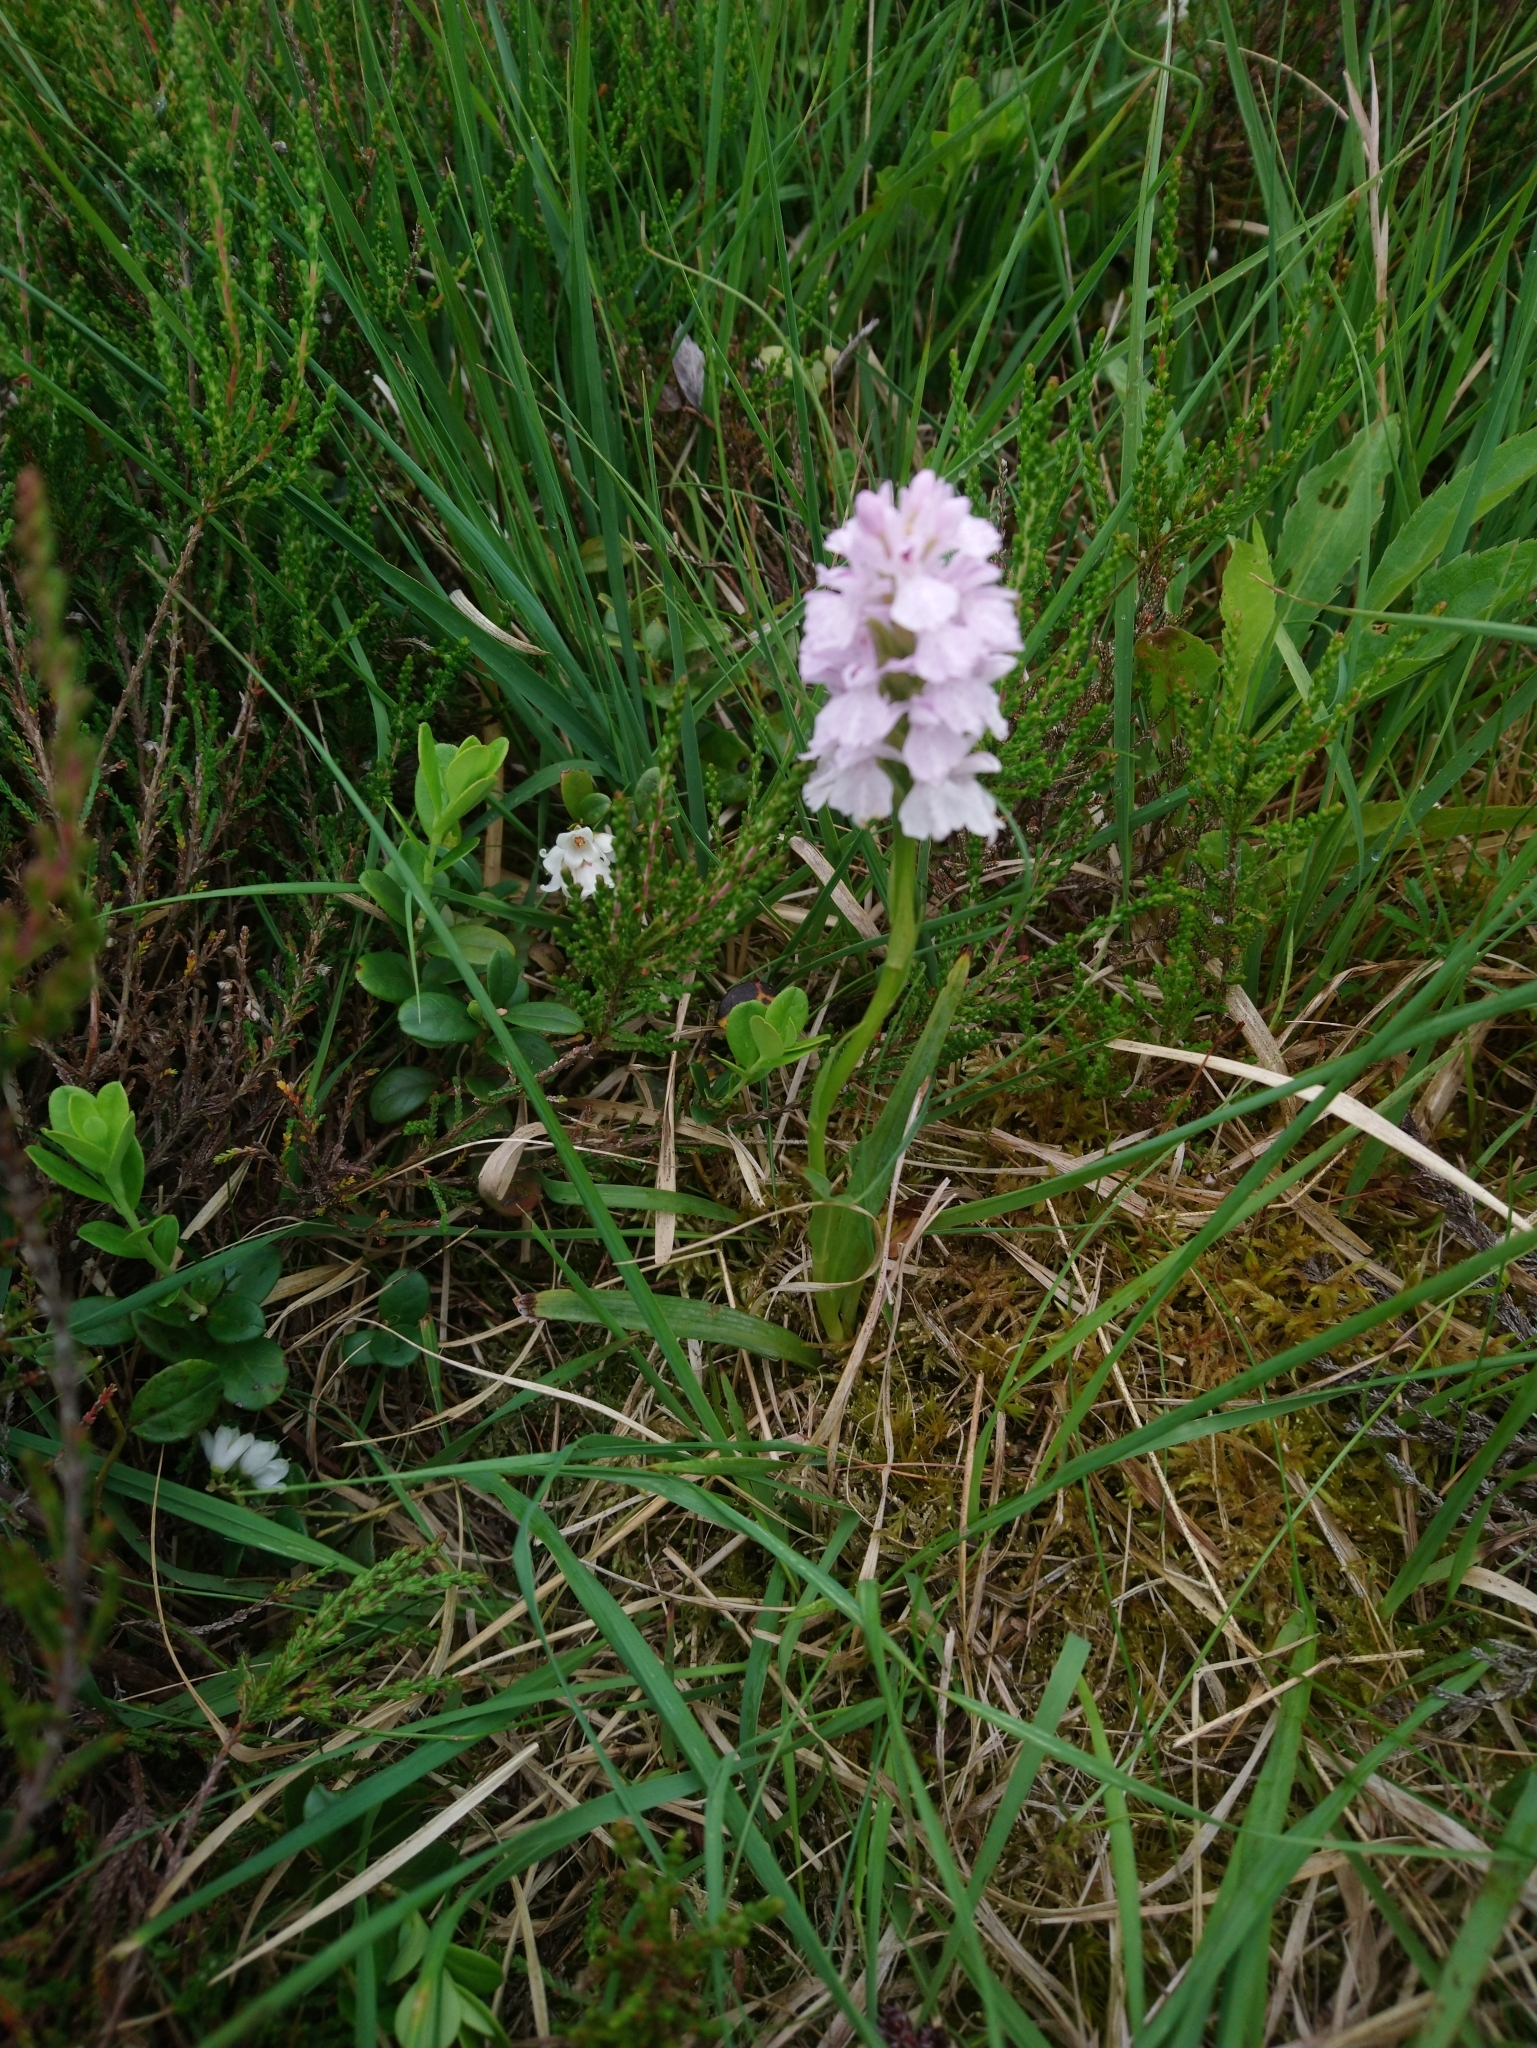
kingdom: Plantae
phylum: Tracheophyta
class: Liliopsida
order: Asparagales
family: Orchidaceae
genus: Dactylorhiza
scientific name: Dactylorhiza maculata
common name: Heath spotted-orchid
